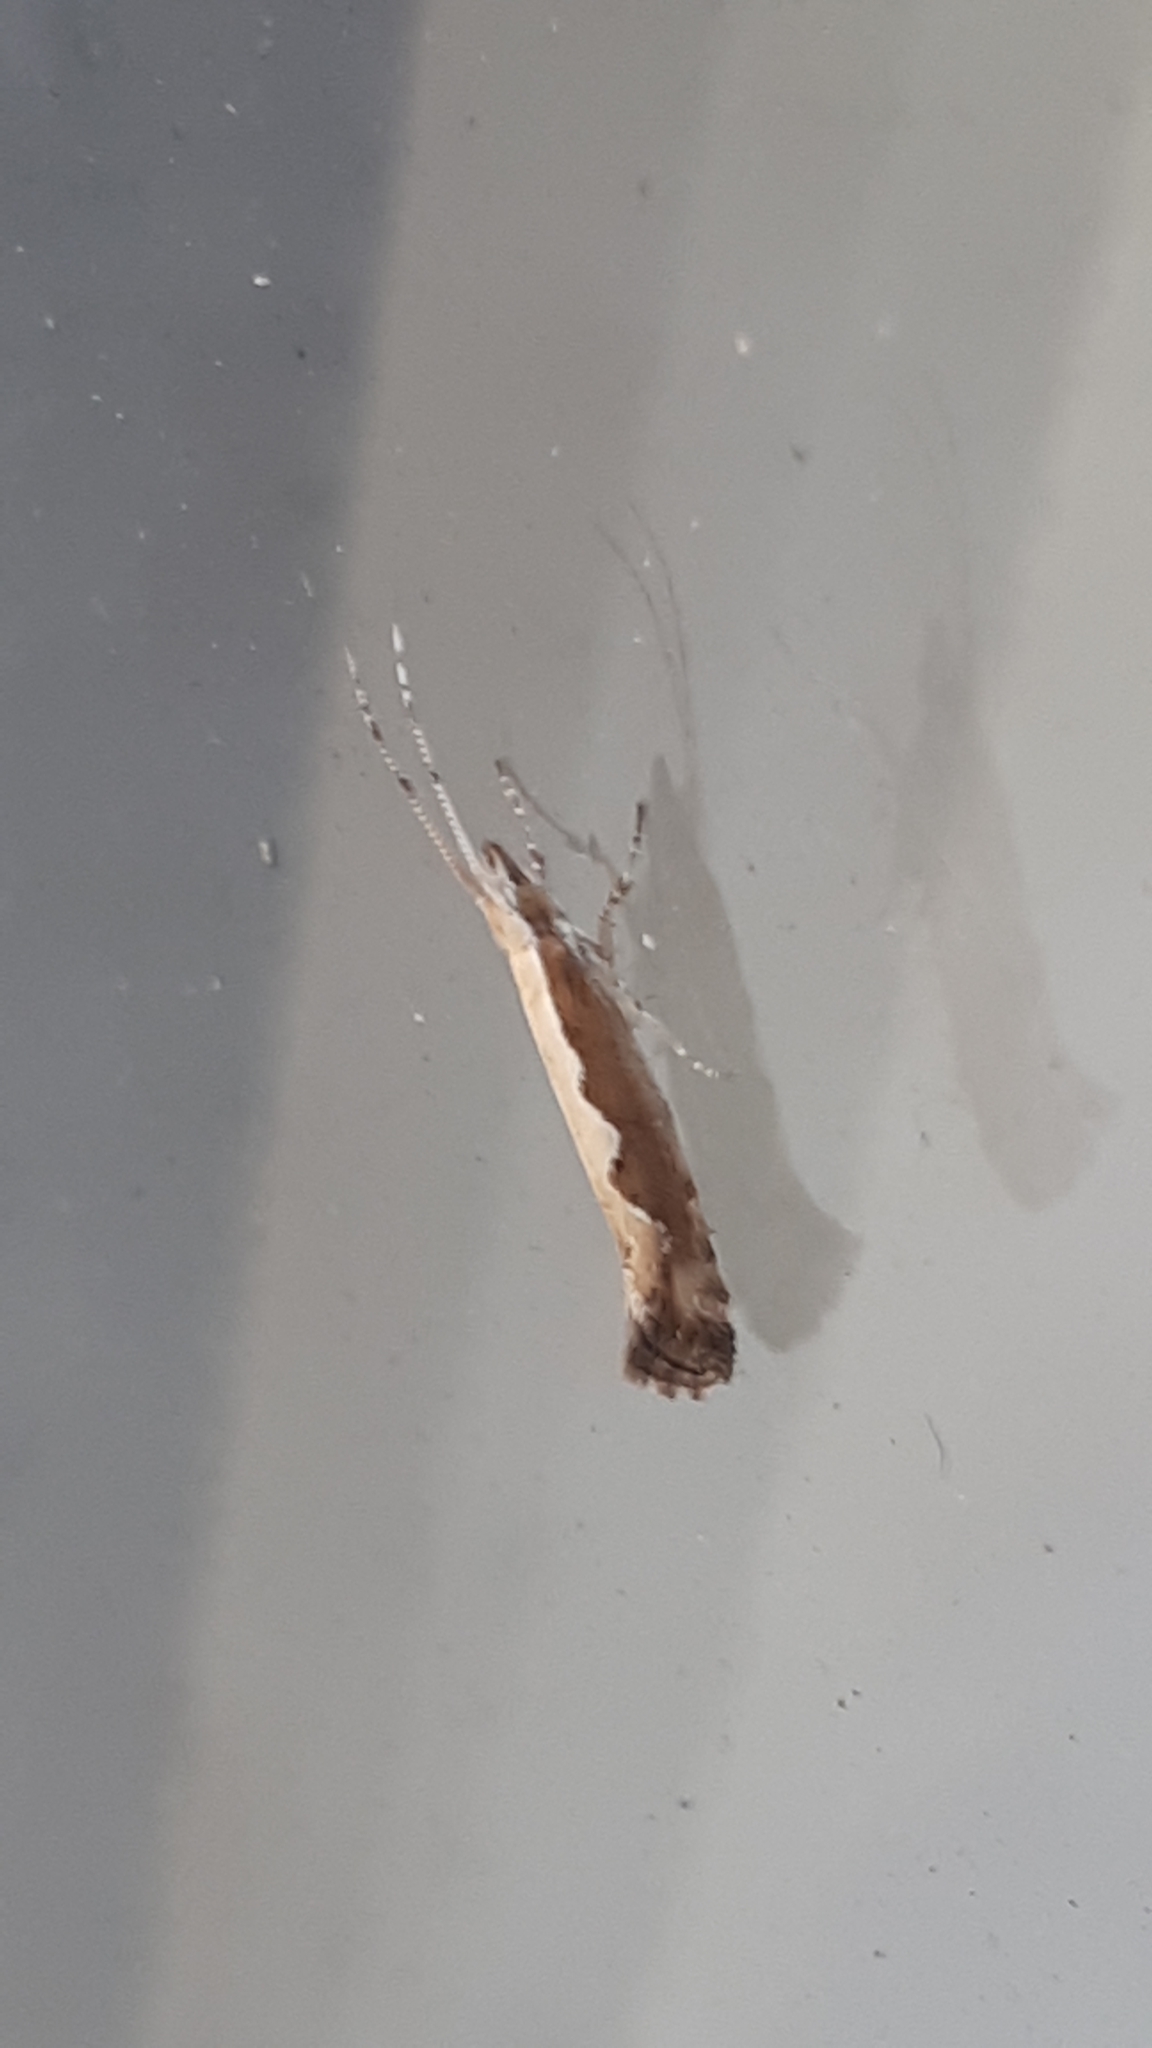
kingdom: Animalia
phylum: Arthropoda
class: Insecta
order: Lepidoptera
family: Plutellidae
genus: Plutella
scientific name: Plutella xylostella
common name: Diamond-back moth
